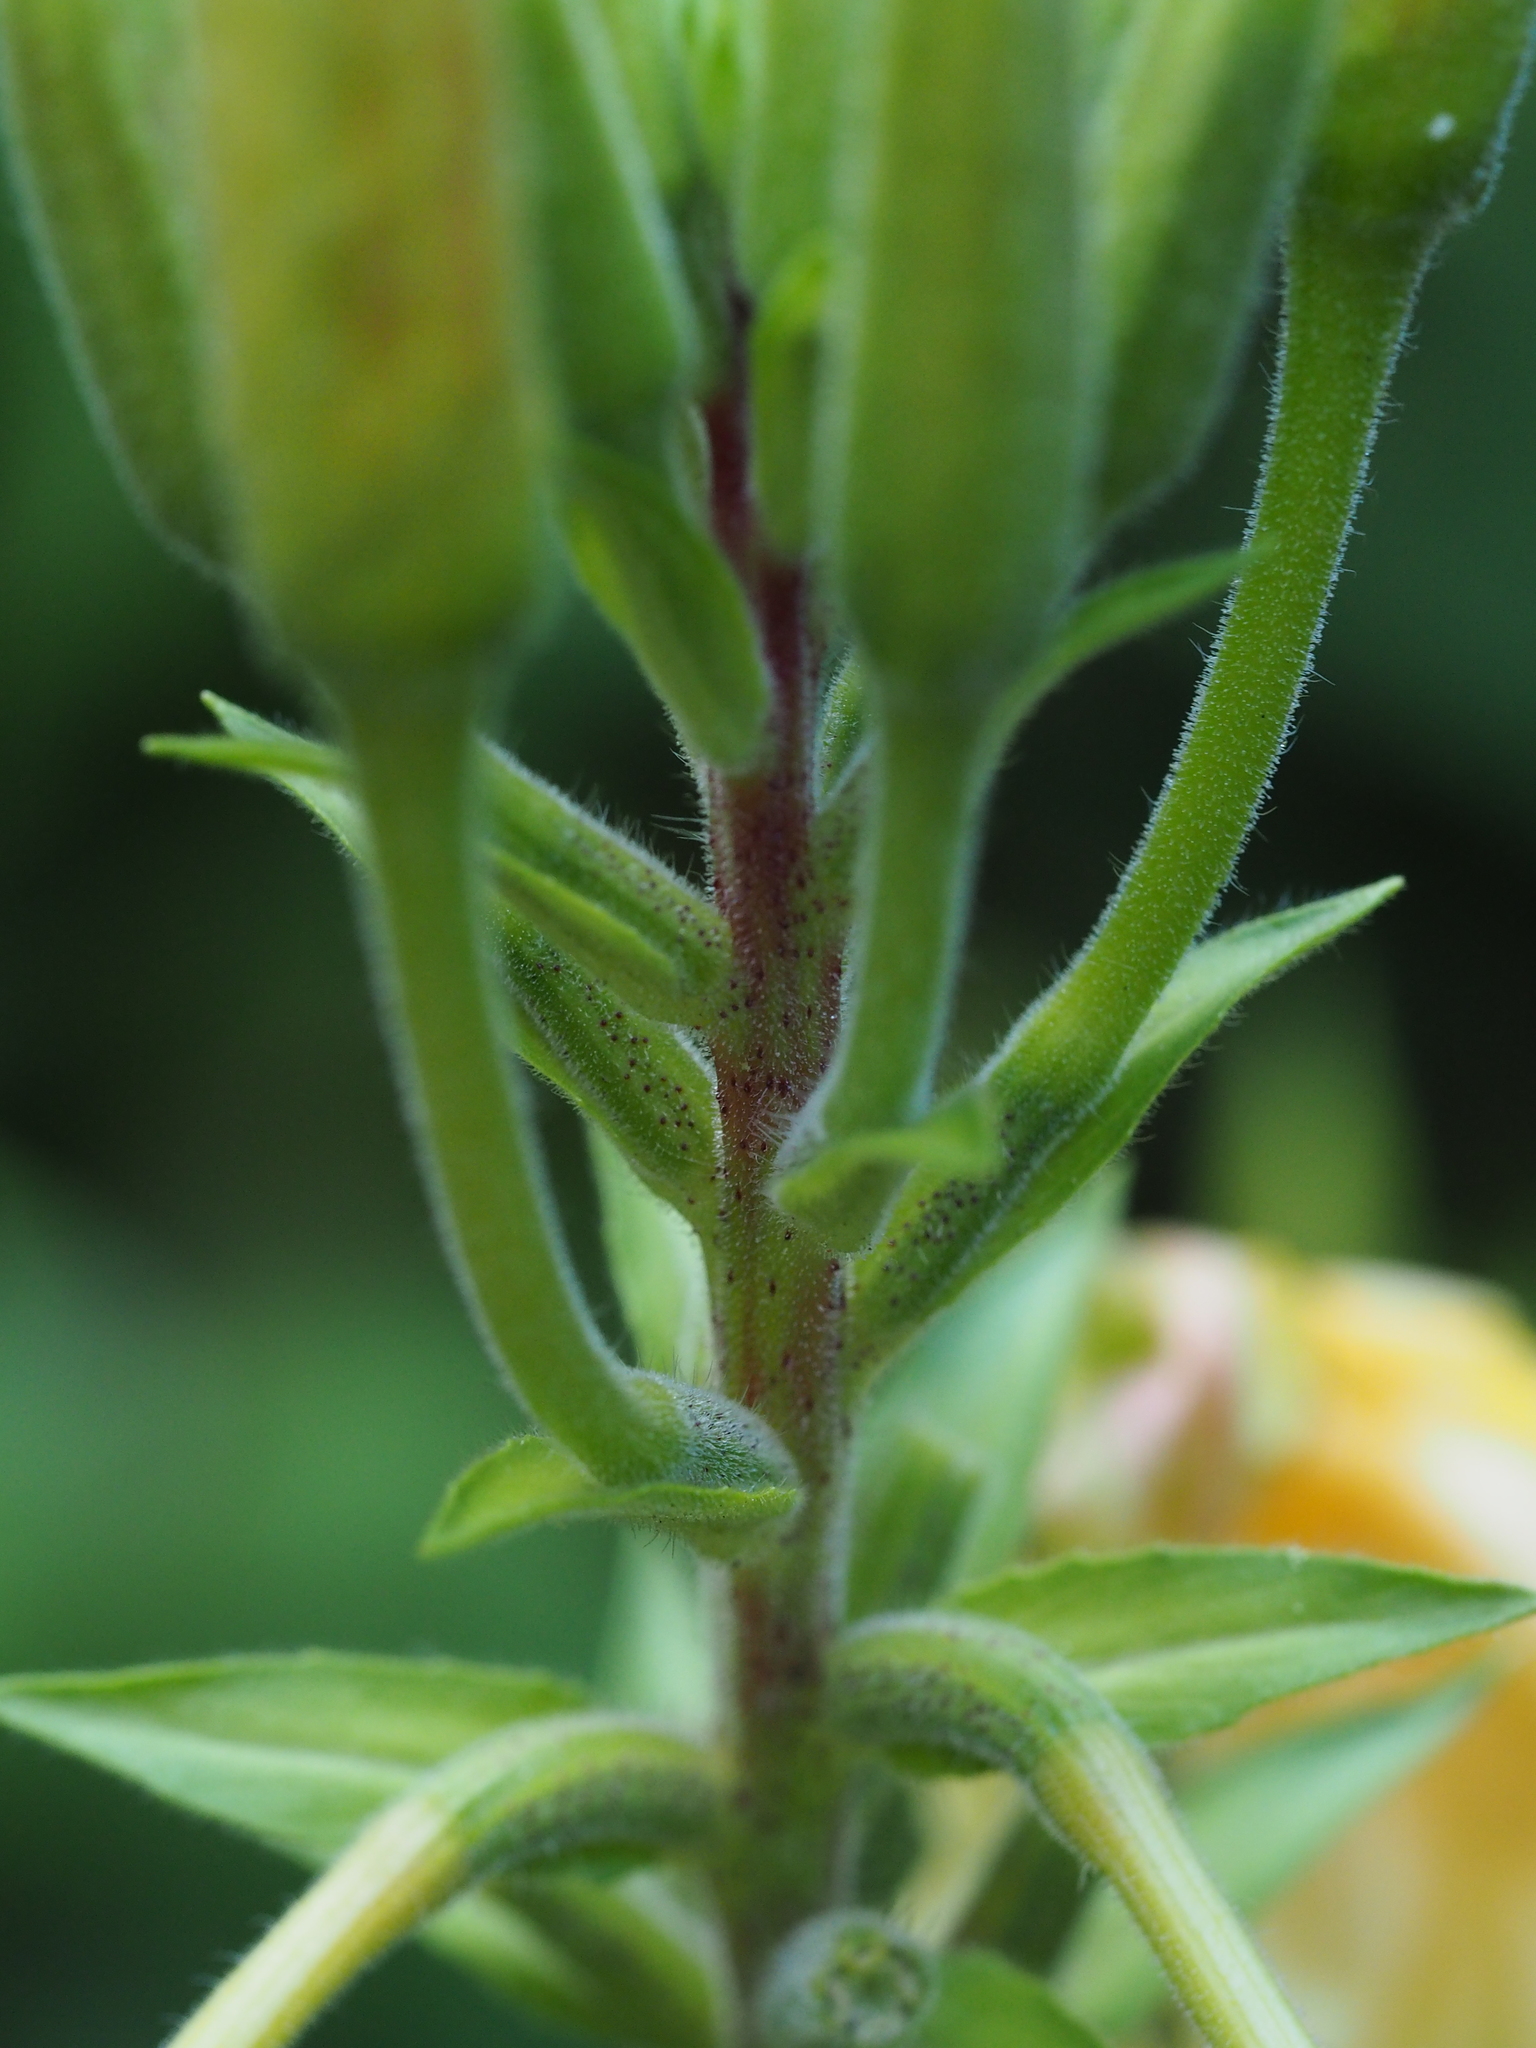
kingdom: Plantae
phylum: Tracheophyta
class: Magnoliopsida
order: Myrtales
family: Onagraceae
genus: Oenothera
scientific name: Oenothera glazioviana
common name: Large-flowered evening-primrose
